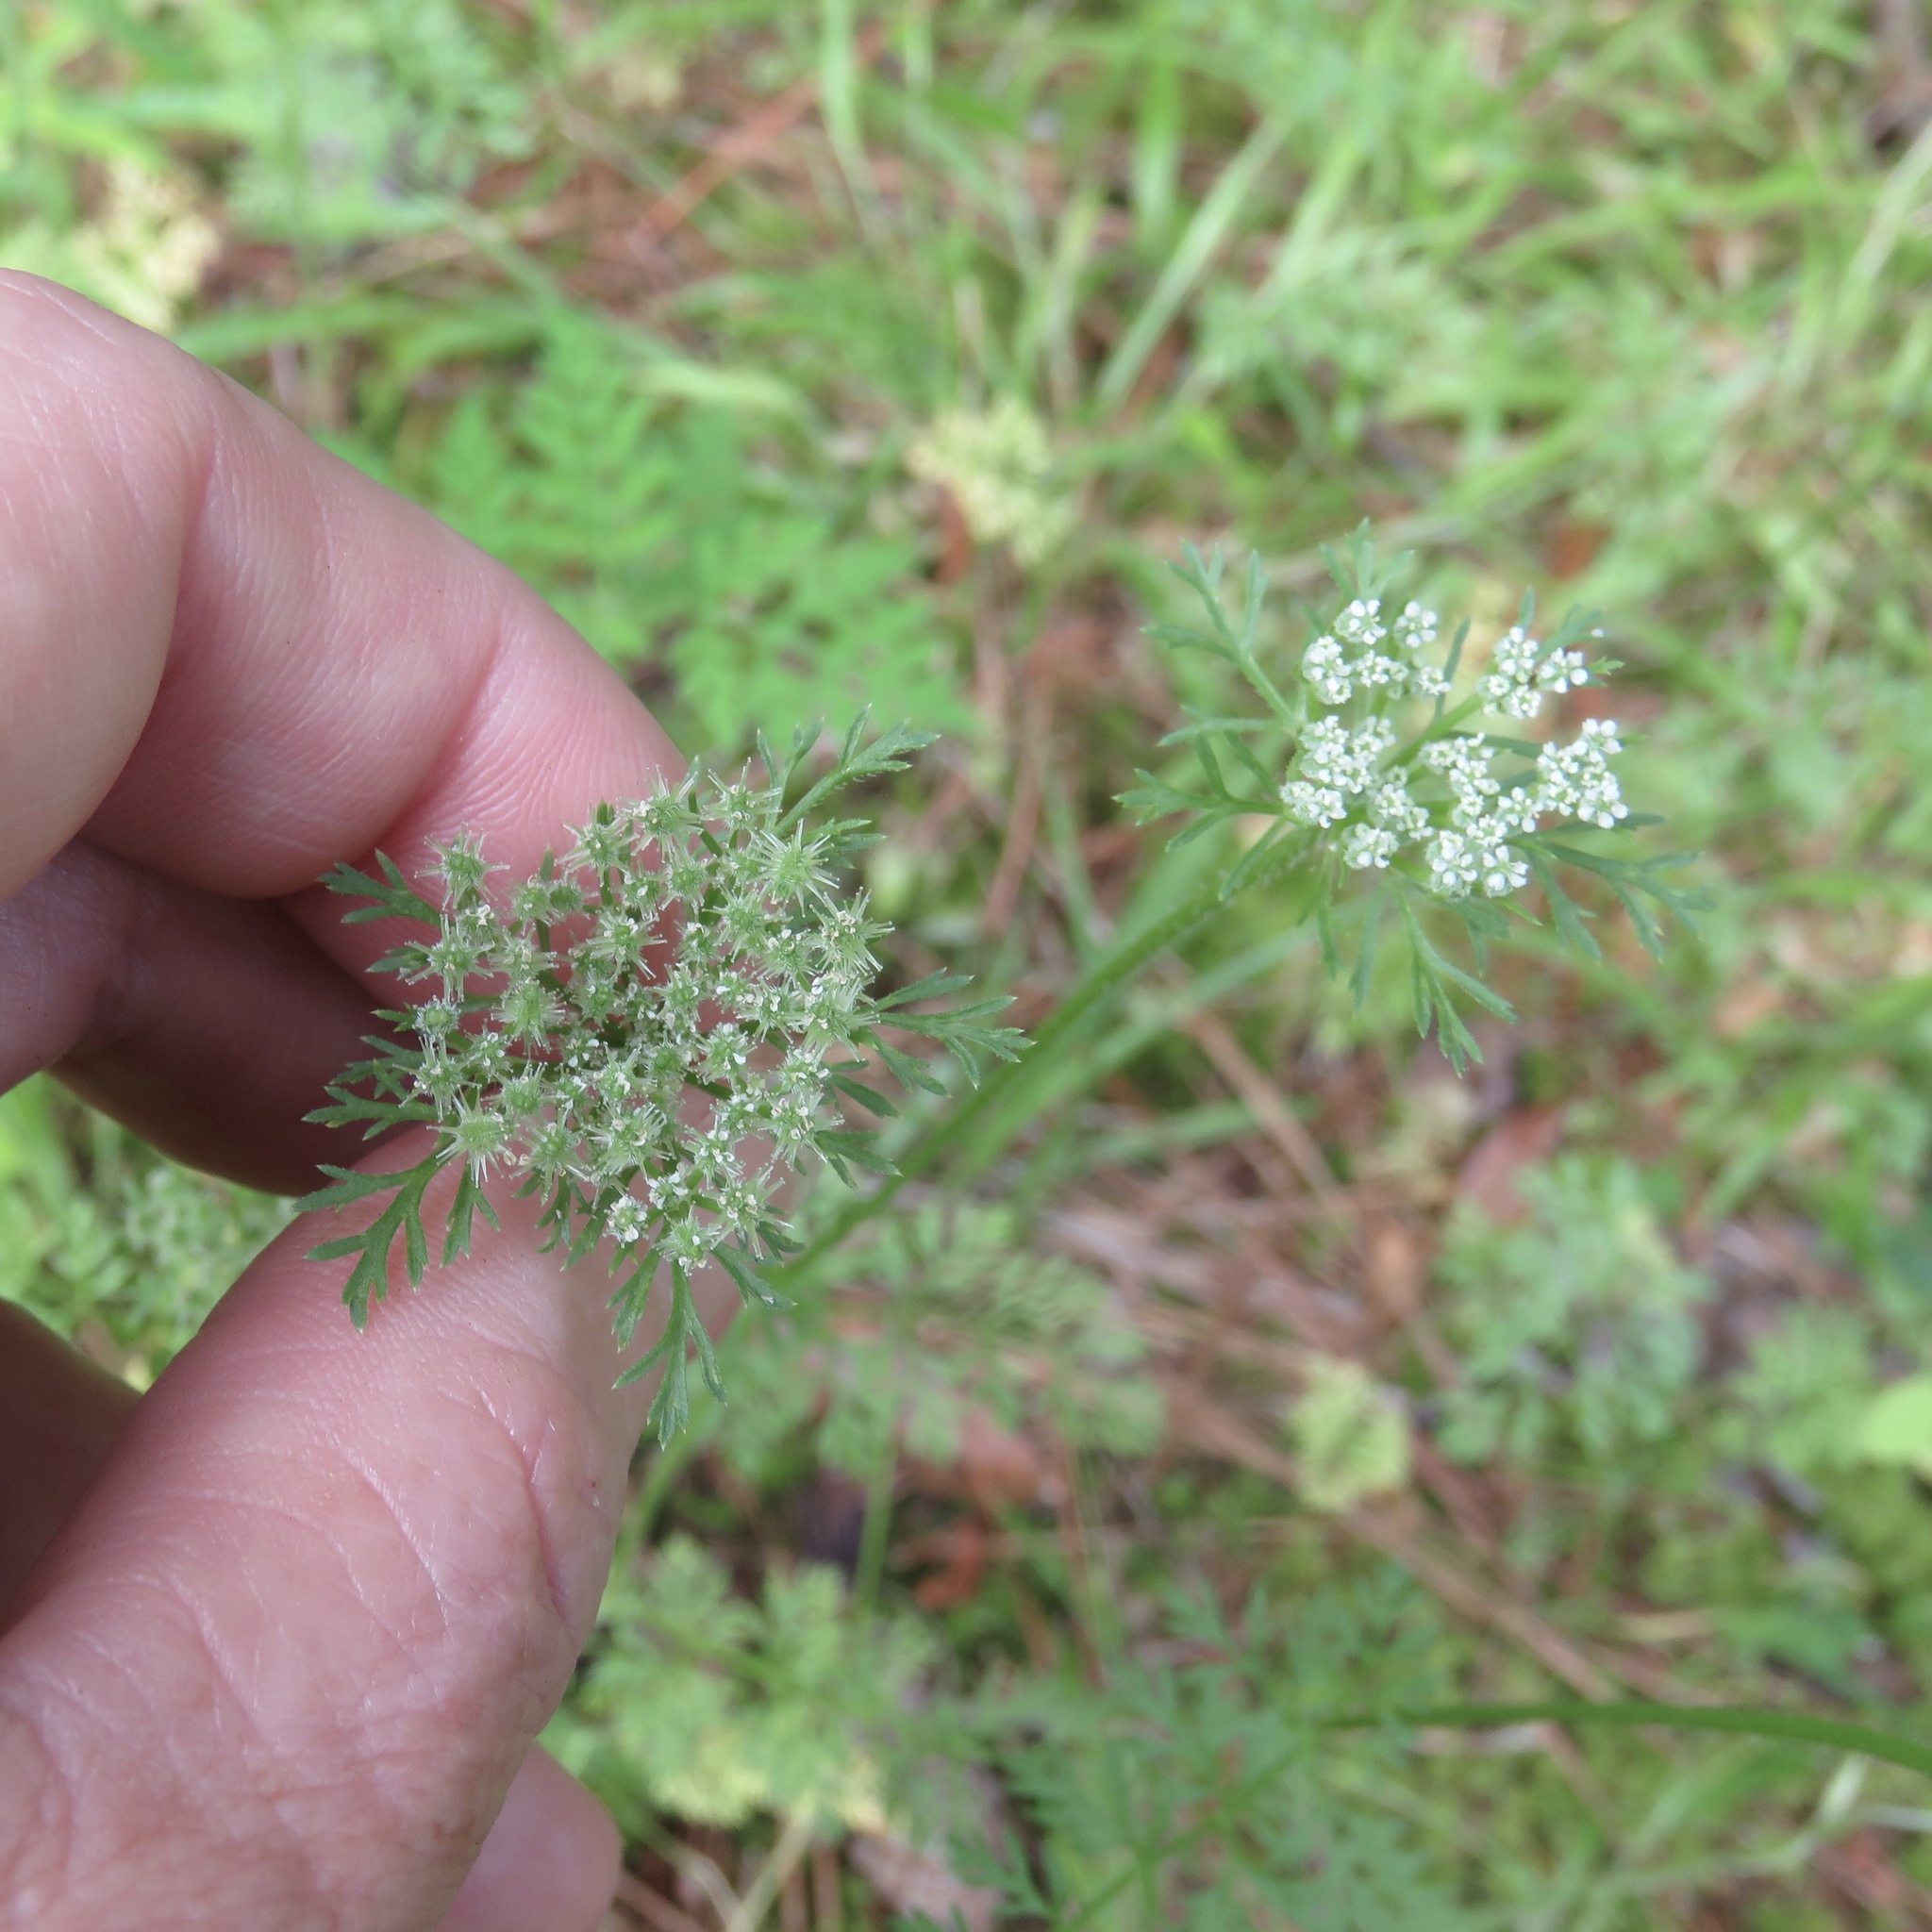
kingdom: Plantae
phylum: Tracheophyta
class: Magnoliopsida
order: Apiales
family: Apiaceae
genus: Daucus
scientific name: Daucus pusillus
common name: Southwest wild carrot
